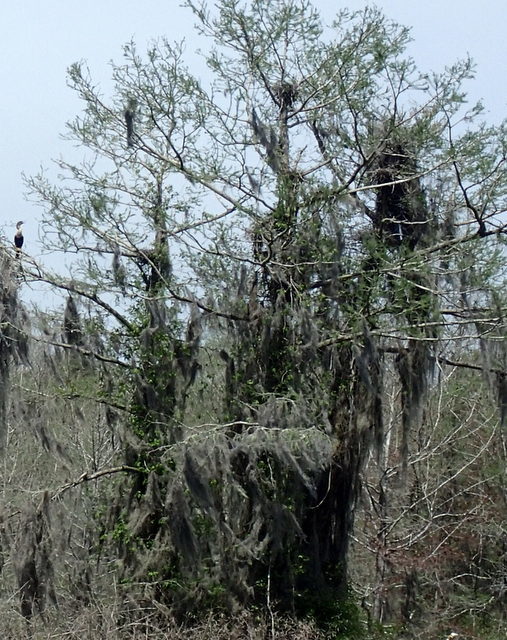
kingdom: Animalia
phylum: Chordata
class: Aves
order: Suliformes
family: Anhingidae
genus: Anhinga
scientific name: Anhinga anhinga
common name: Anhinga
